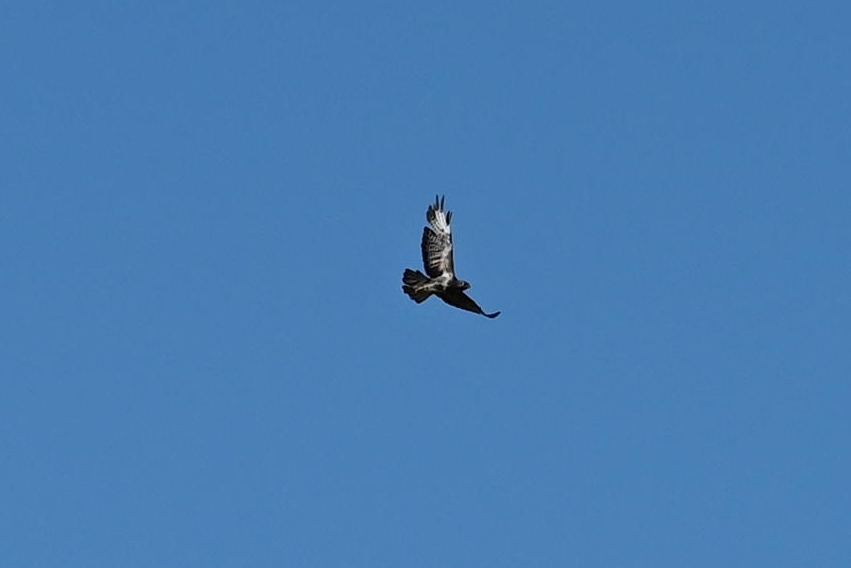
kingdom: Animalia
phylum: Chordata
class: Aves
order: Accipitriformes
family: Accipitridae
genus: Buteo
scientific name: Buteo buteo
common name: Common buzzard
